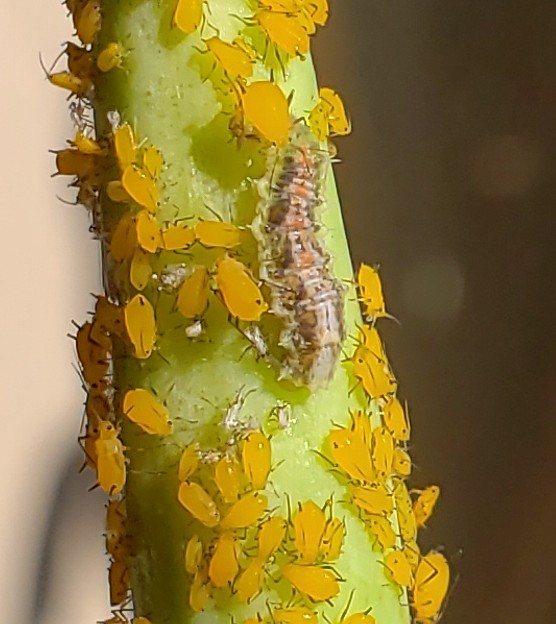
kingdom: Animalia
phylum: Arthropoda
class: Insecta
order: Diptera
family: Syrphidae
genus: Dioprosopa
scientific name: Dioprosopa clavatus
